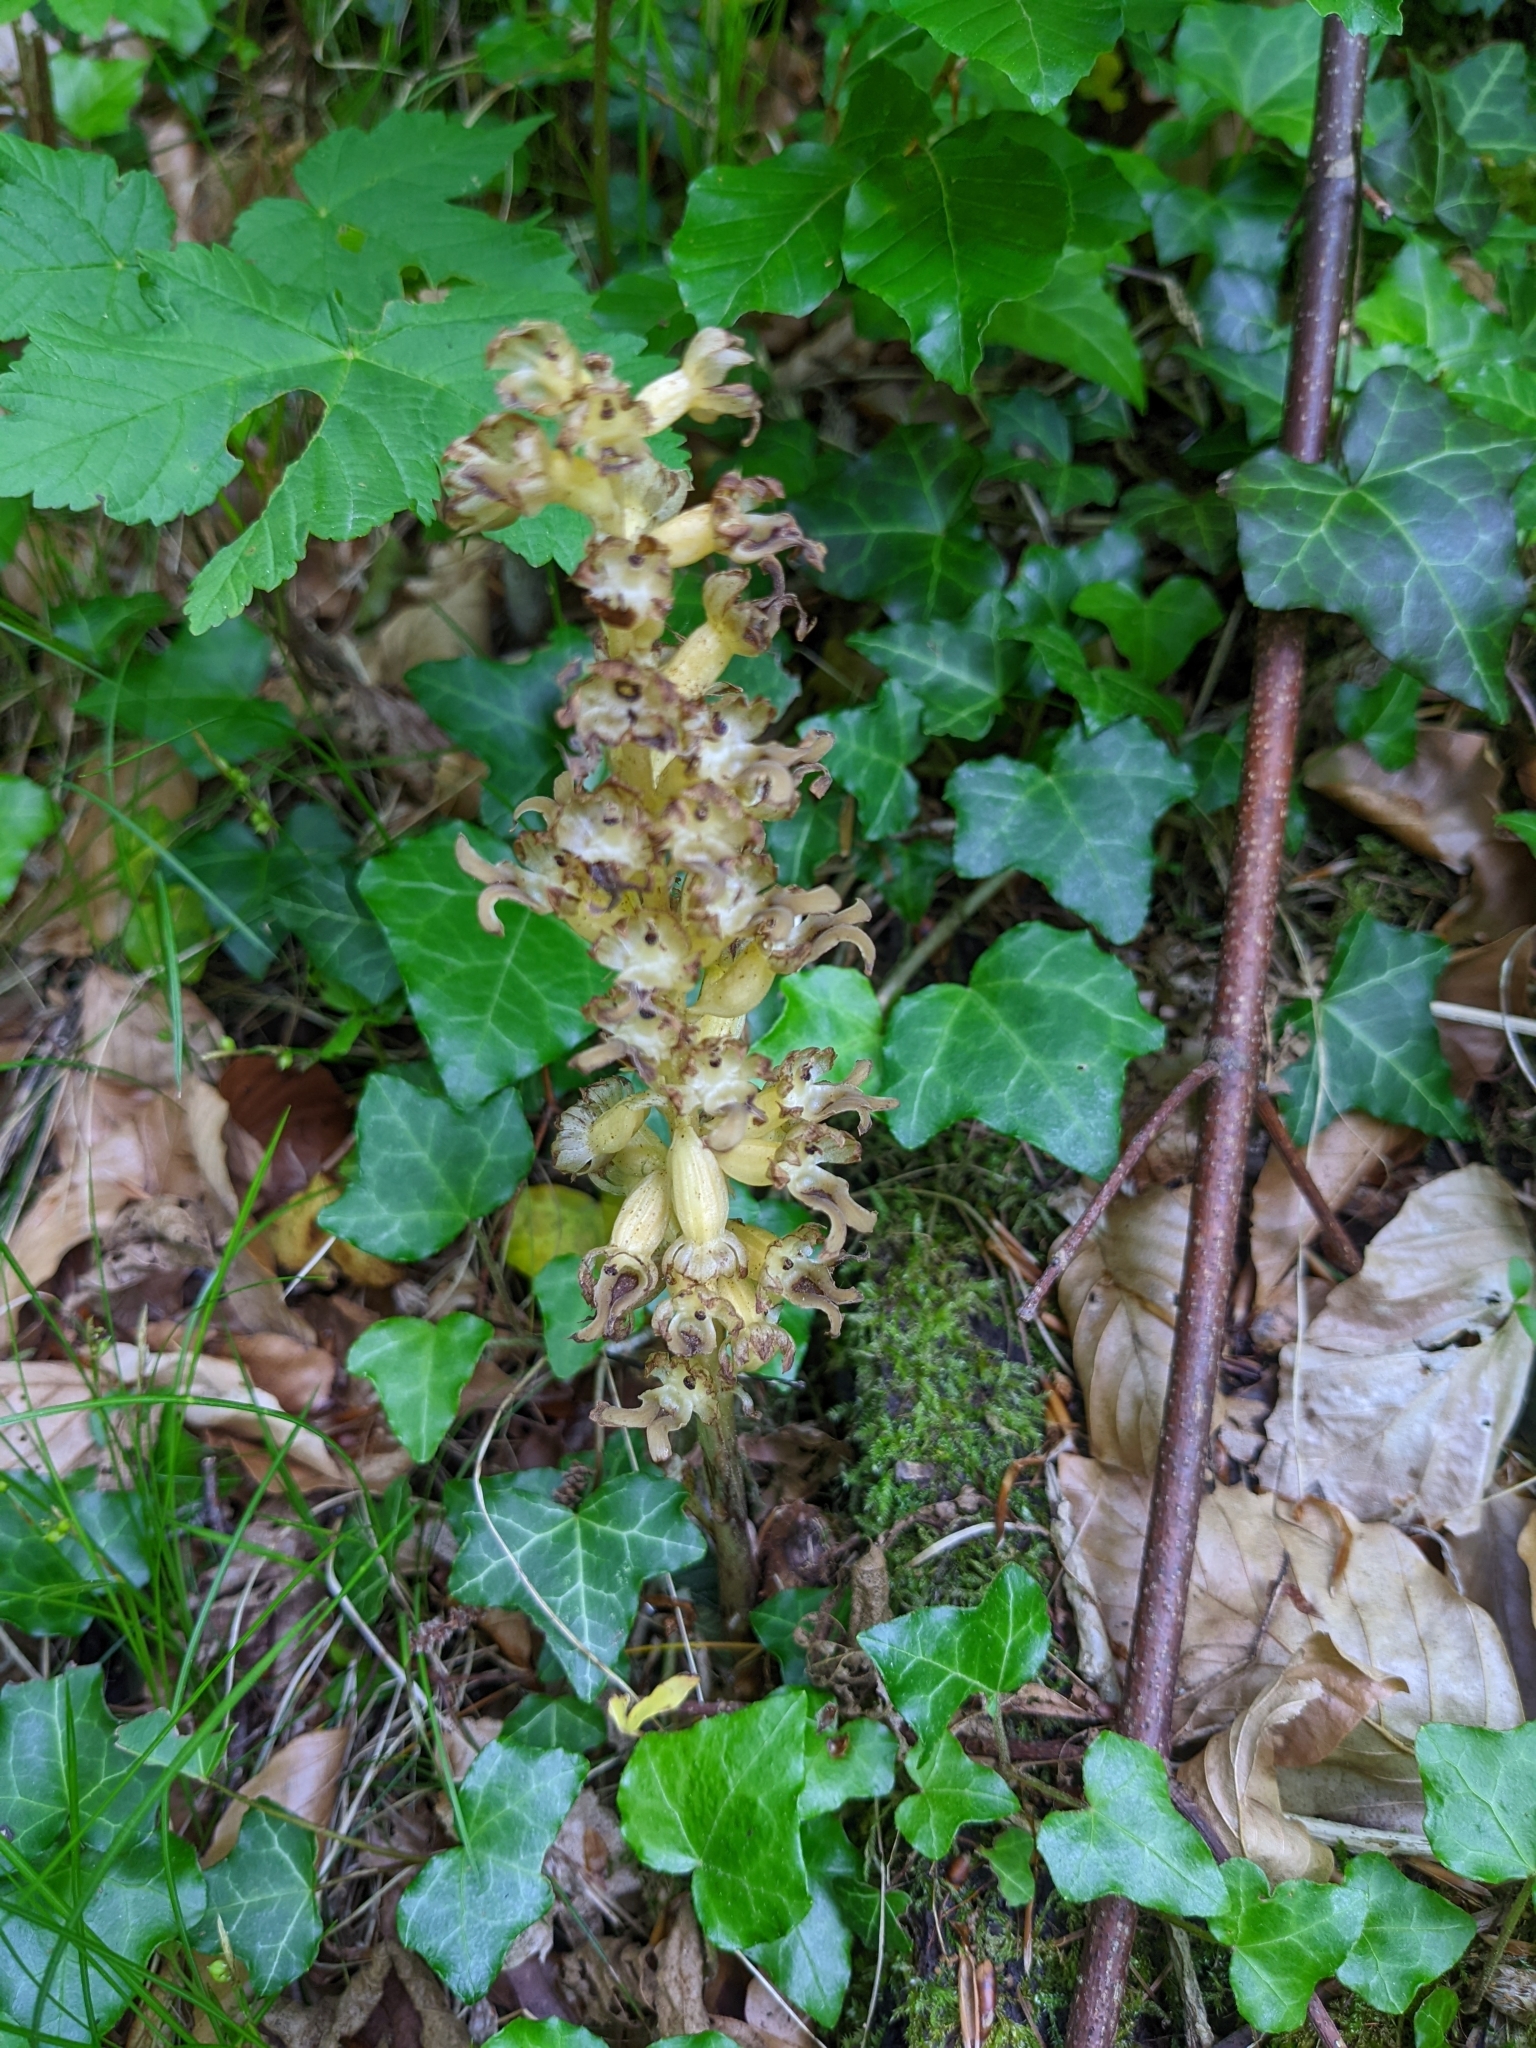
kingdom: Plantae
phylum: Tracheophyta
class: Liliopsida
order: Asparagales
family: Orchidaceae
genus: Neottia
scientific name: Neottia nidus-avis
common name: Bird's-nest orchid
